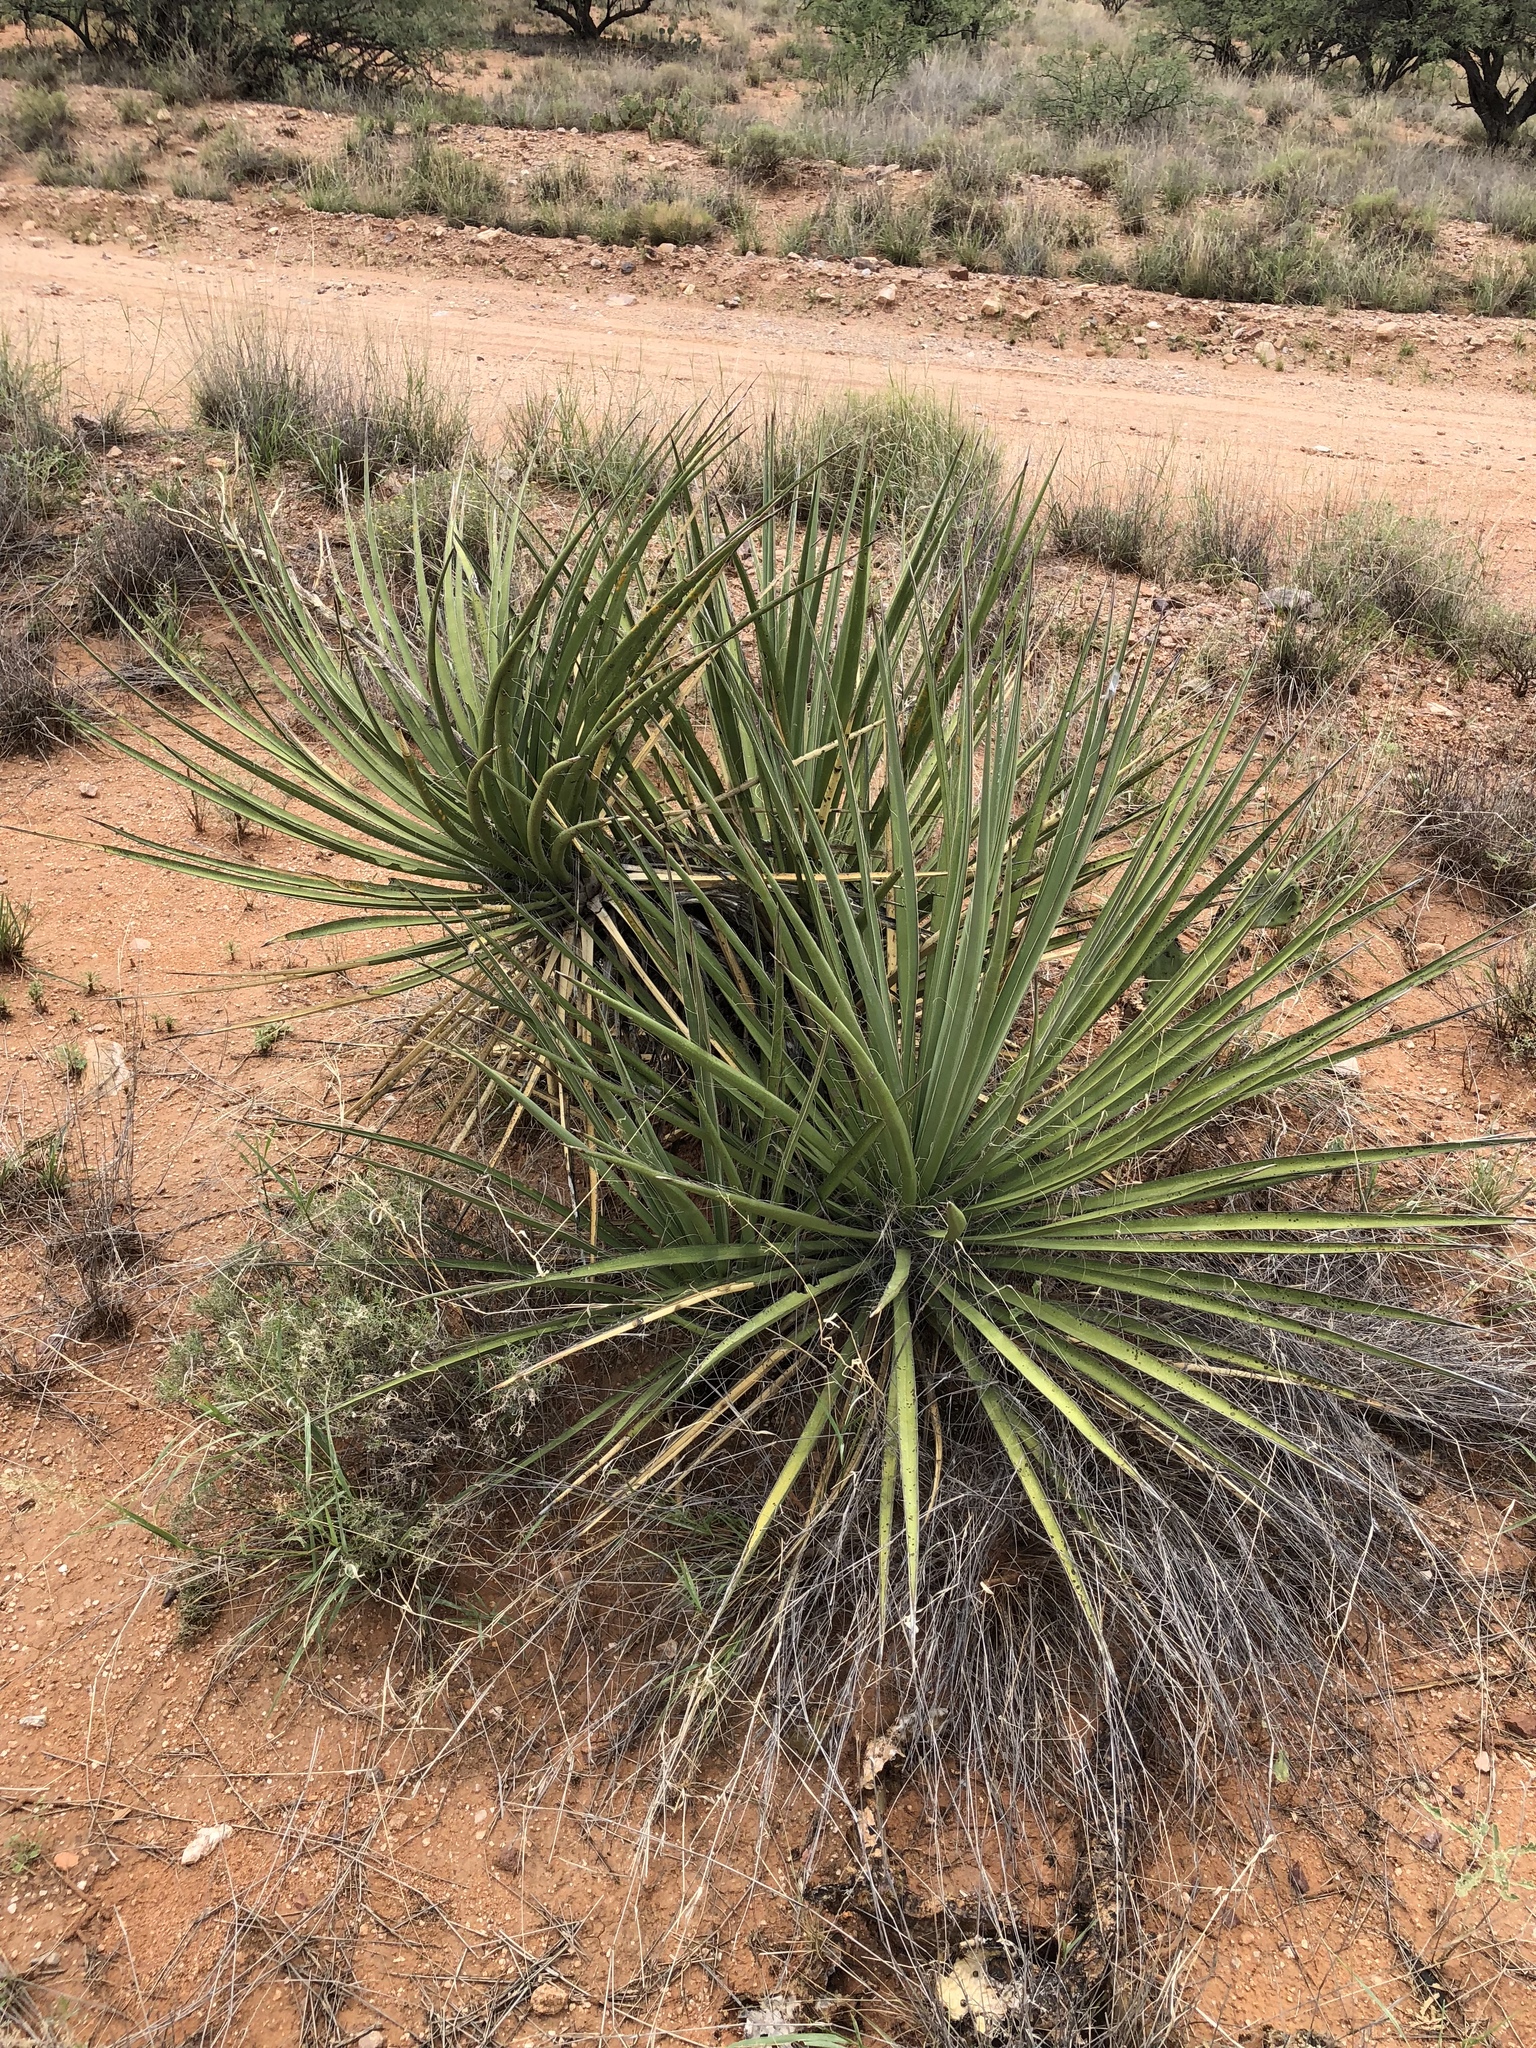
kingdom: Plantae
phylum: Tracheophyta
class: Liliopsida
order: Asparagales
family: Asparagaceae
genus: Yucca
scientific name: Yucca baccata
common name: Banana yucca
